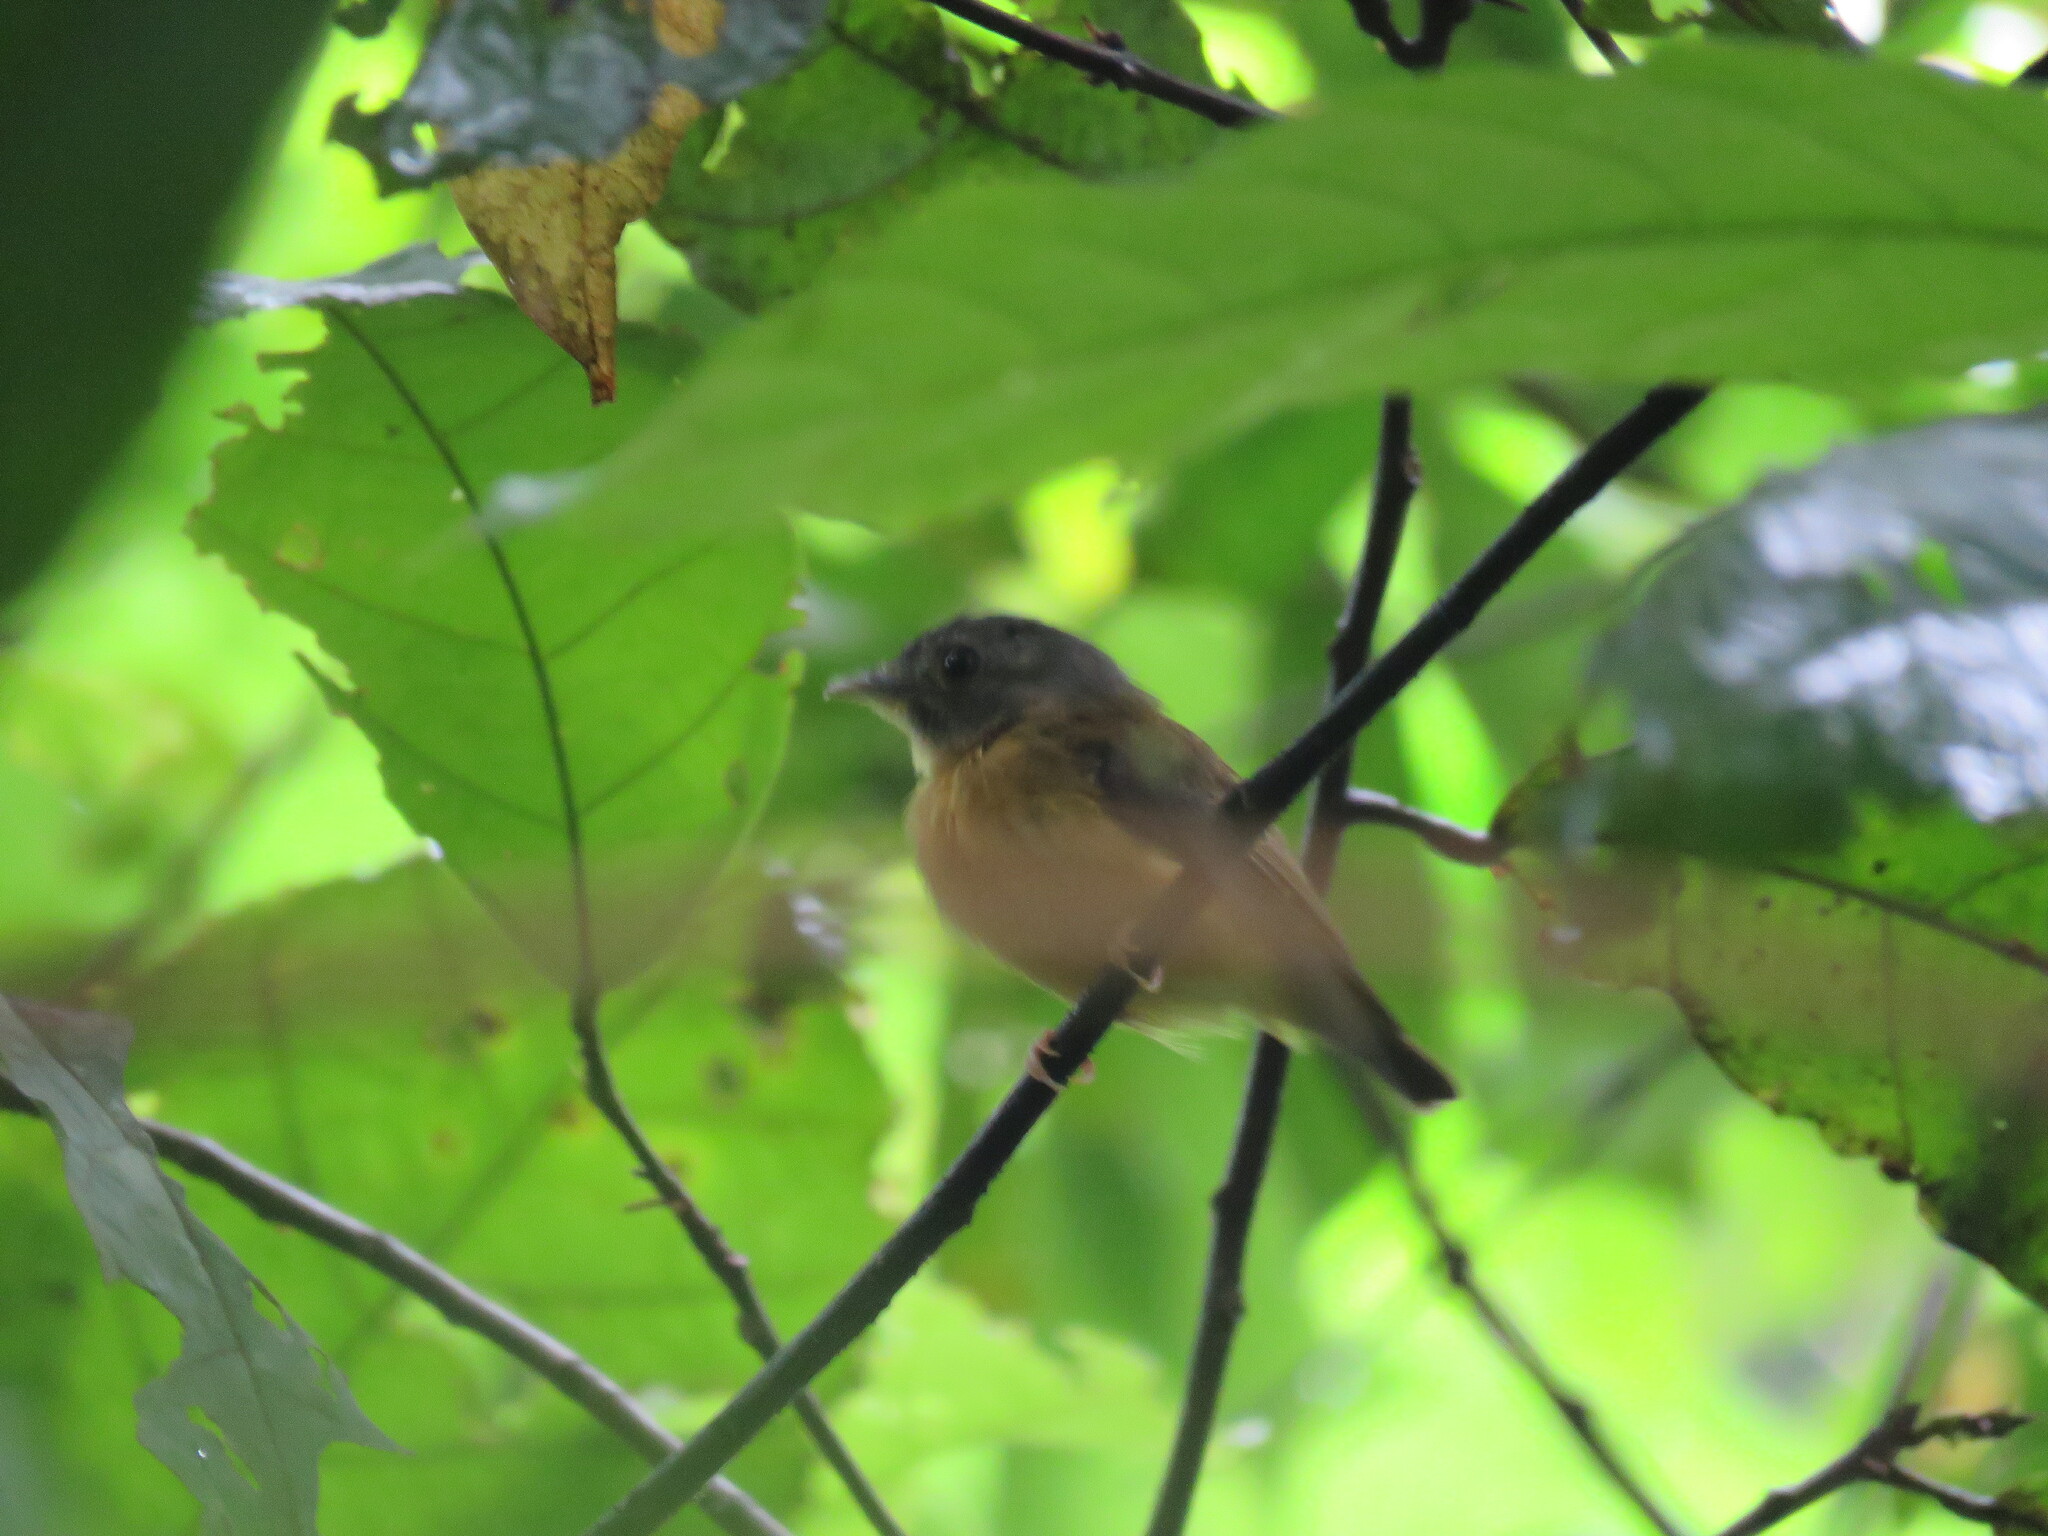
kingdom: Animalia
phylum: Chordata
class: Aves
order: Passeriformes
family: Tyrannidae
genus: Platyrinchus
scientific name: Platyrinchus platyrhynchos
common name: White-crested spadebill
